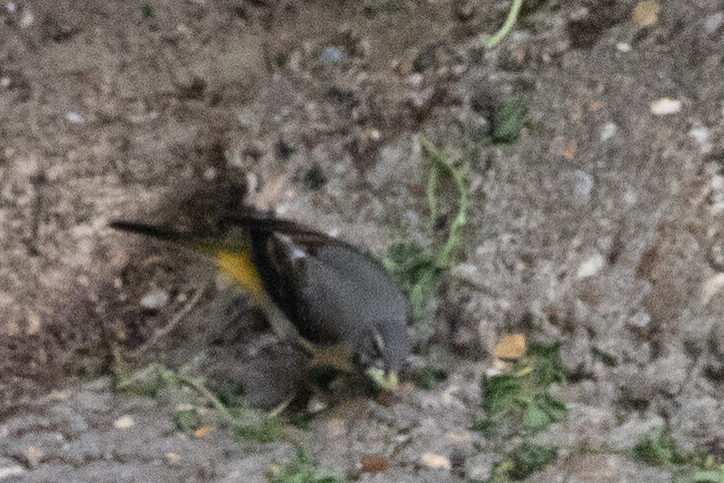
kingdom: Animalia
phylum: Chordata
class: Aves
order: Passeriformes
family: Motacillidae
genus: Motacilla
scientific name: Motacilla cinerea
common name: Grey wagtail
